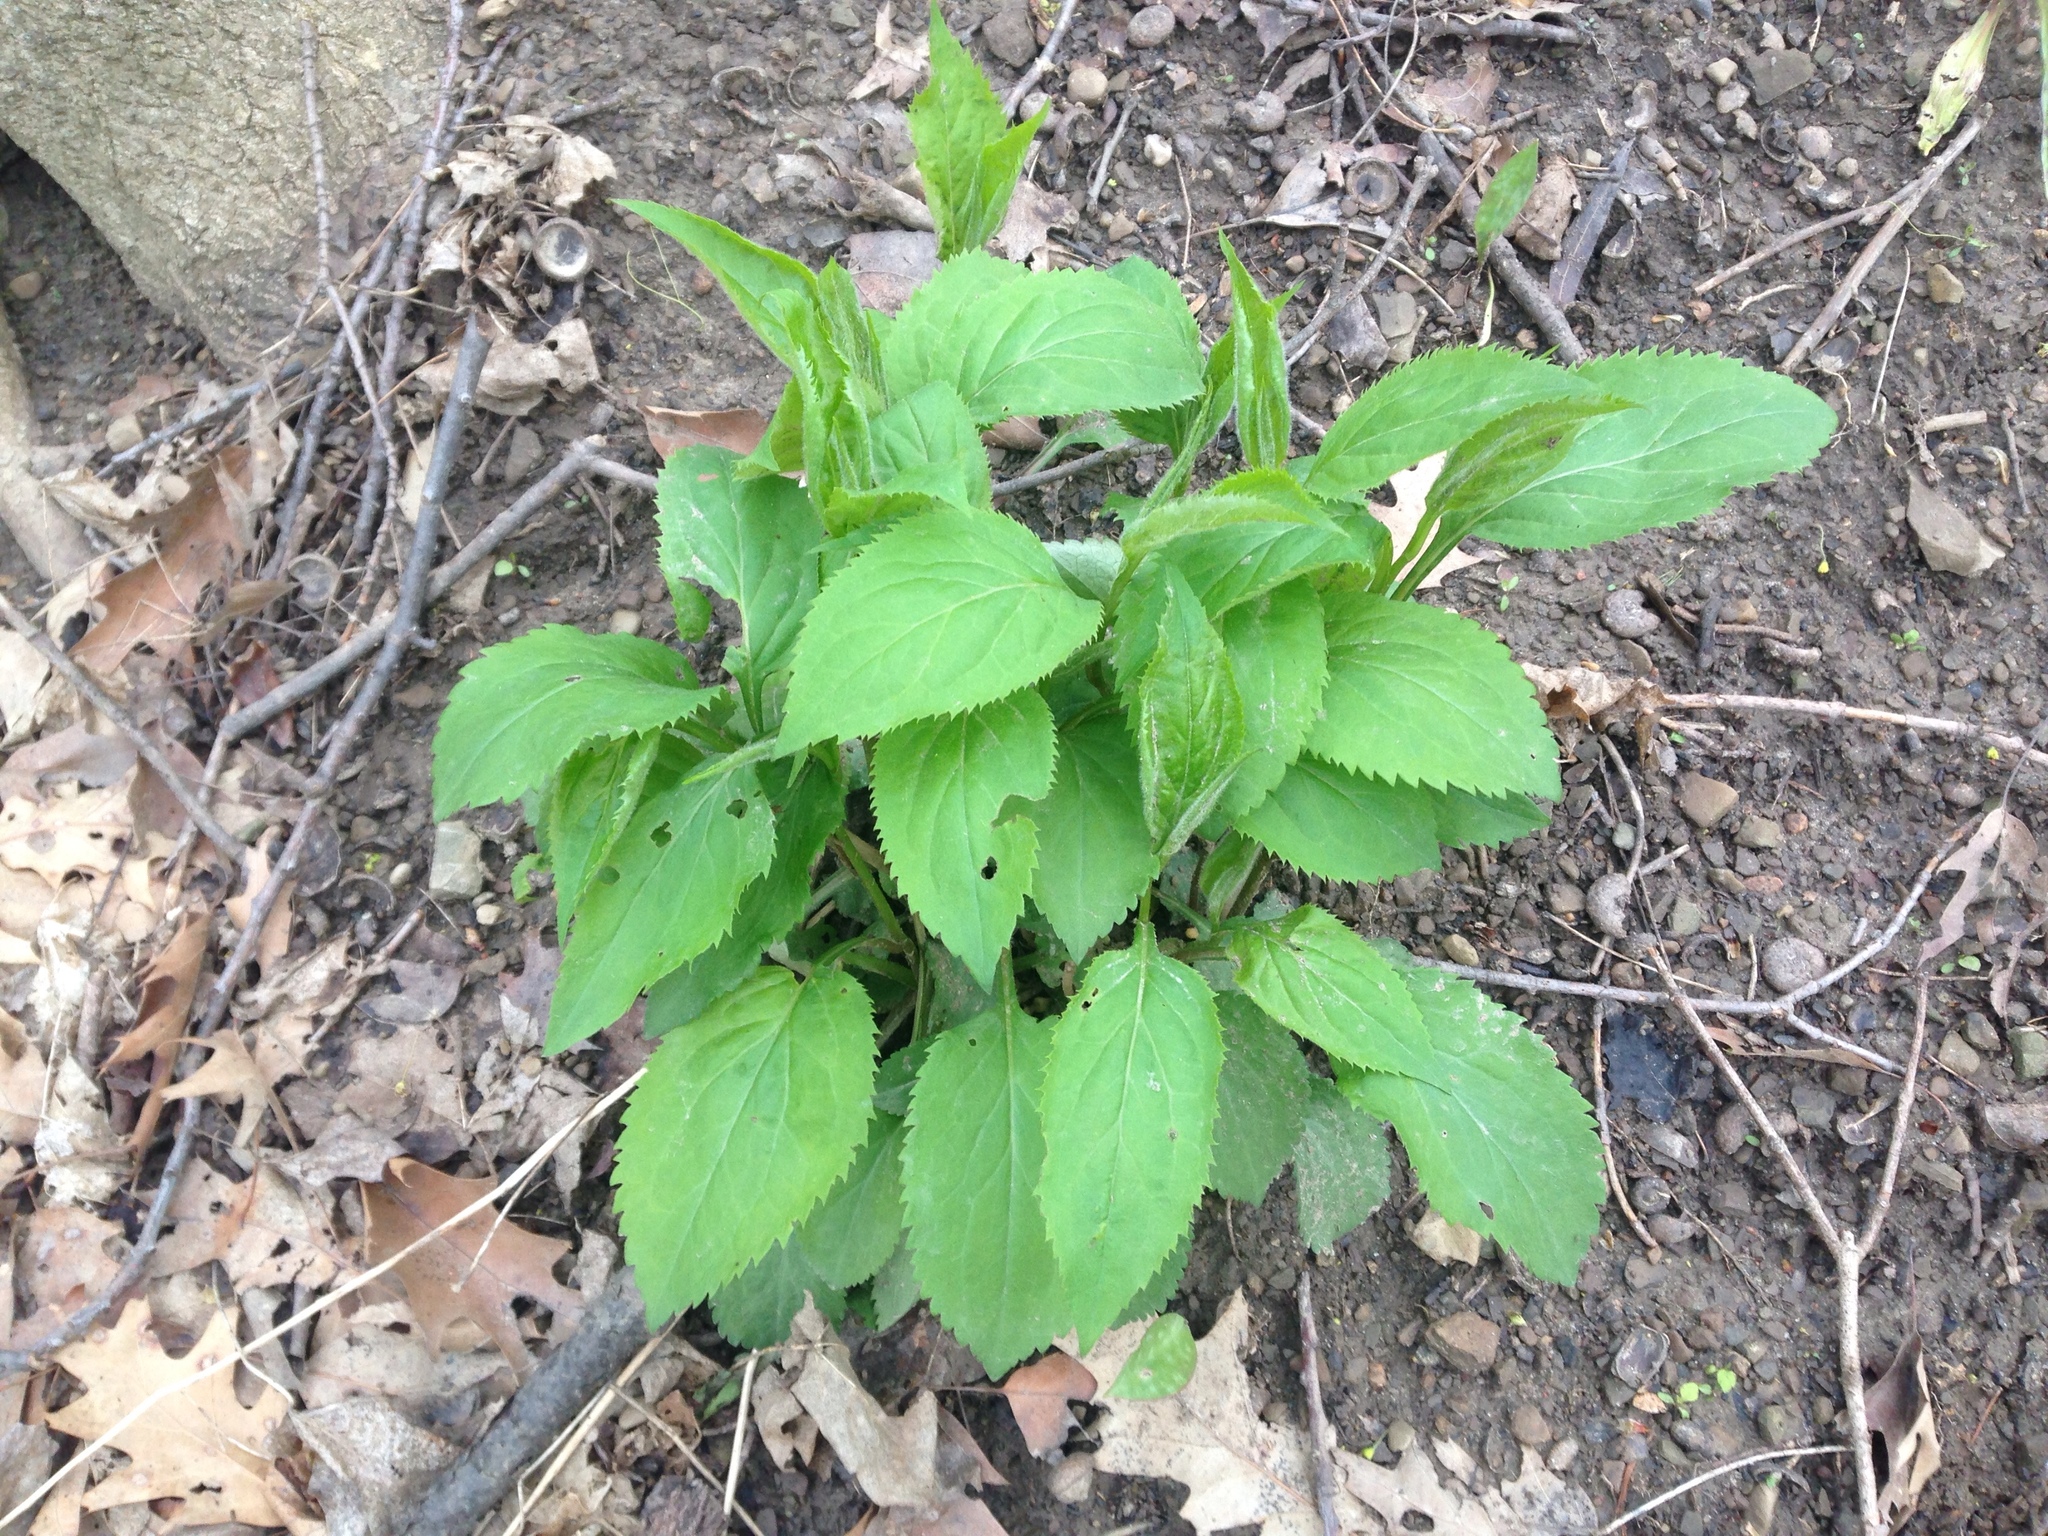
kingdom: Plantae
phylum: Tracheophyta
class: Magnoliopsida
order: Asterales
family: Asteraceae
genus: Solidago
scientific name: Solidago flexicaulis
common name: Zig-zag goldenrod
